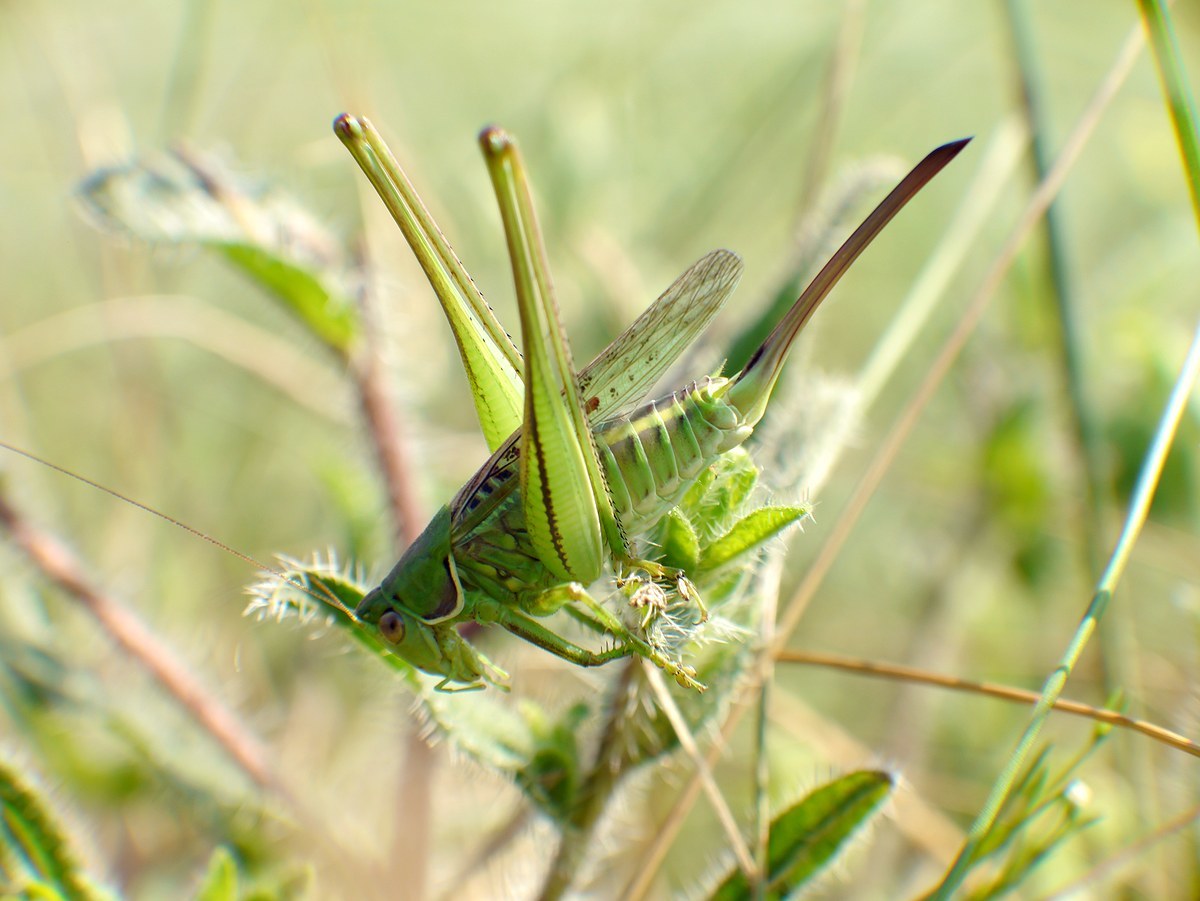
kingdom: Animalia
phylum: Arthropoda
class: Insecta
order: Orthoptera
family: Tettigoniidae
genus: Gampsocleis
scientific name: Gampsocleis glabra
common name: Heath bushcricket
